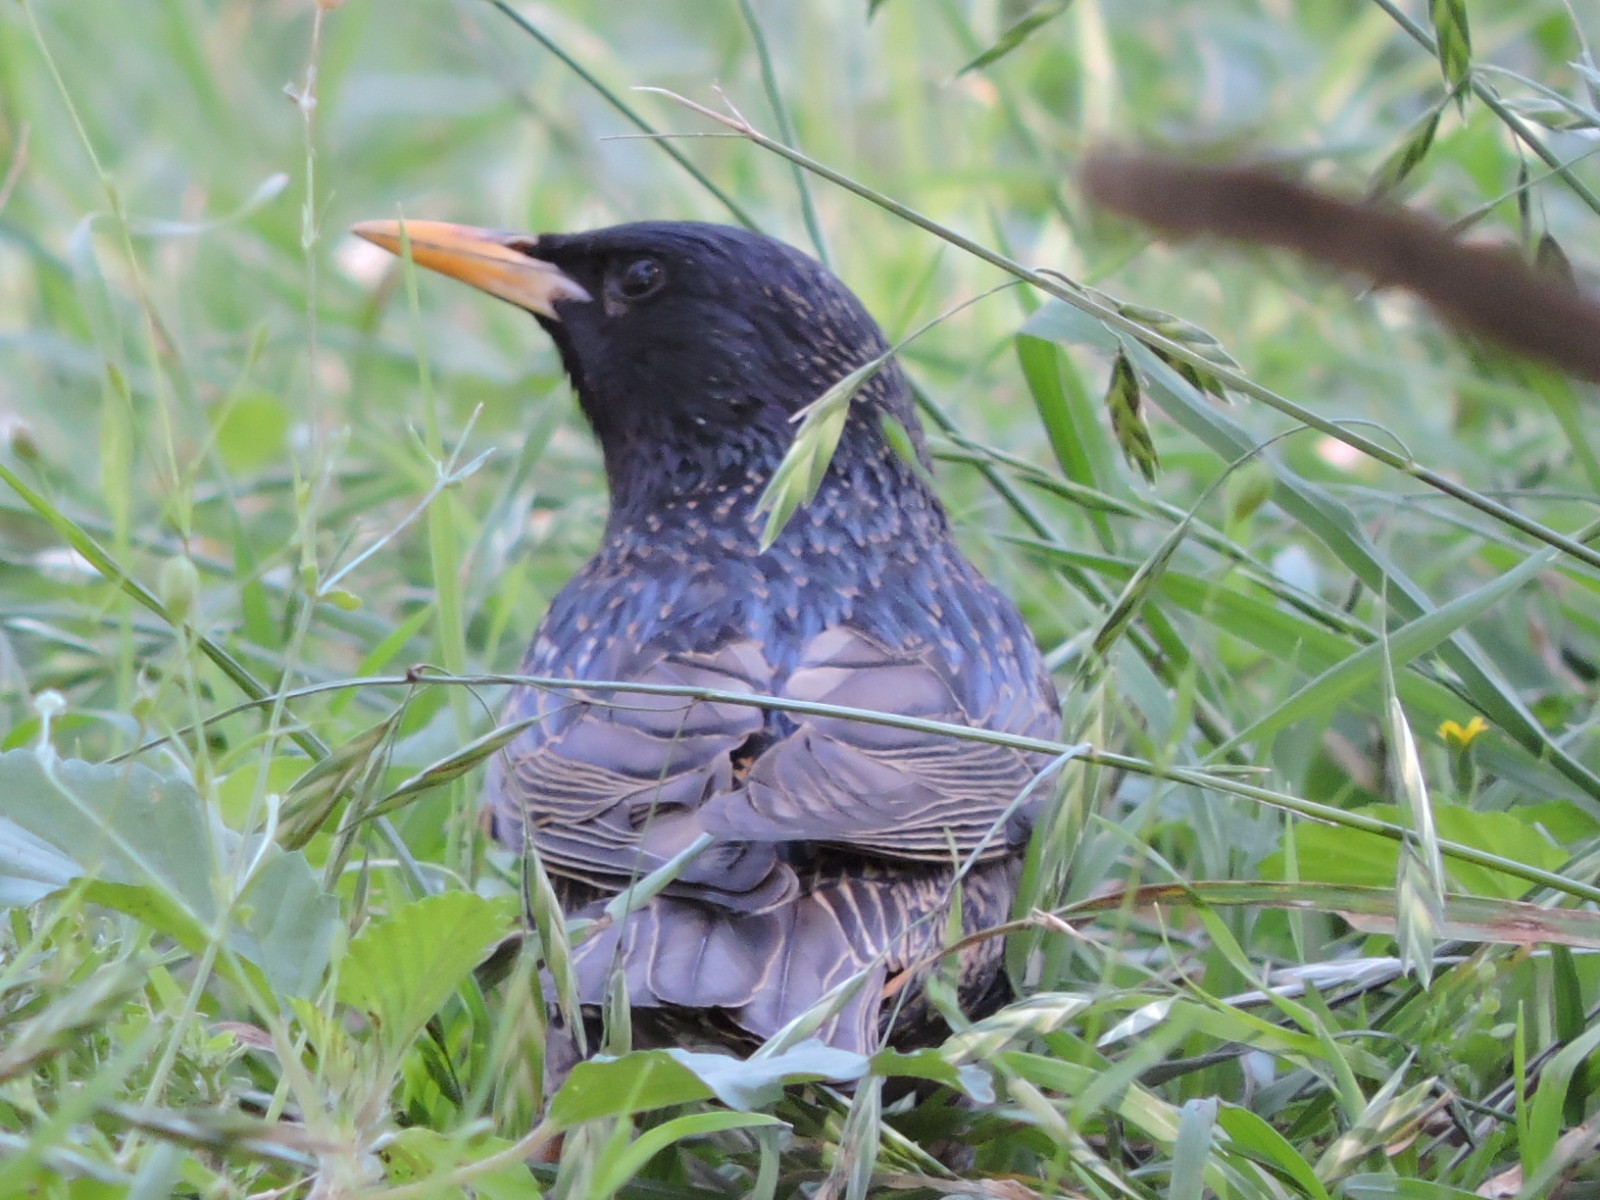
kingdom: Animalia
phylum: Chordata
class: Aves
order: Passeriformes
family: Sturnidae
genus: Sturnus
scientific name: Sturnus vulgaris
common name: Common starling
